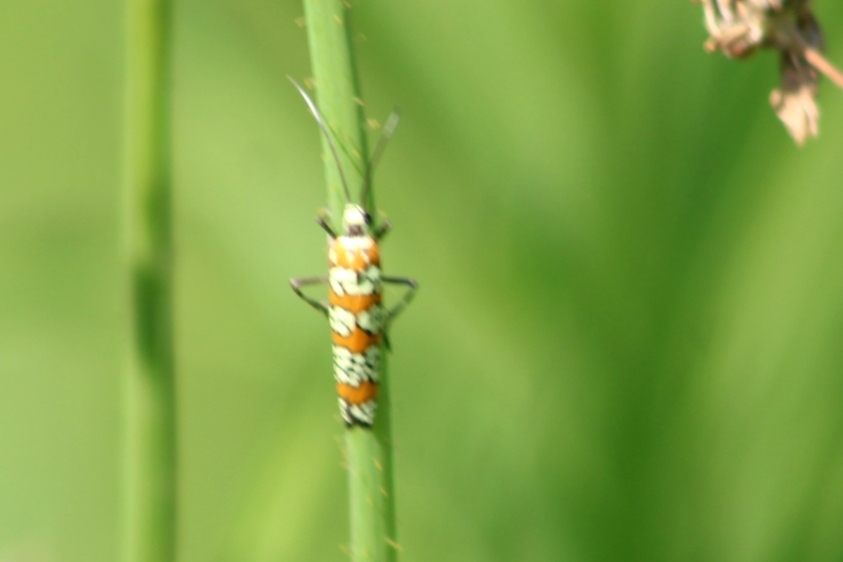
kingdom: Animalia
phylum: Arthropoda
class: Insecta
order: Lepidoptera
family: Attevidae
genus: Atteva
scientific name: Atteva punctella
